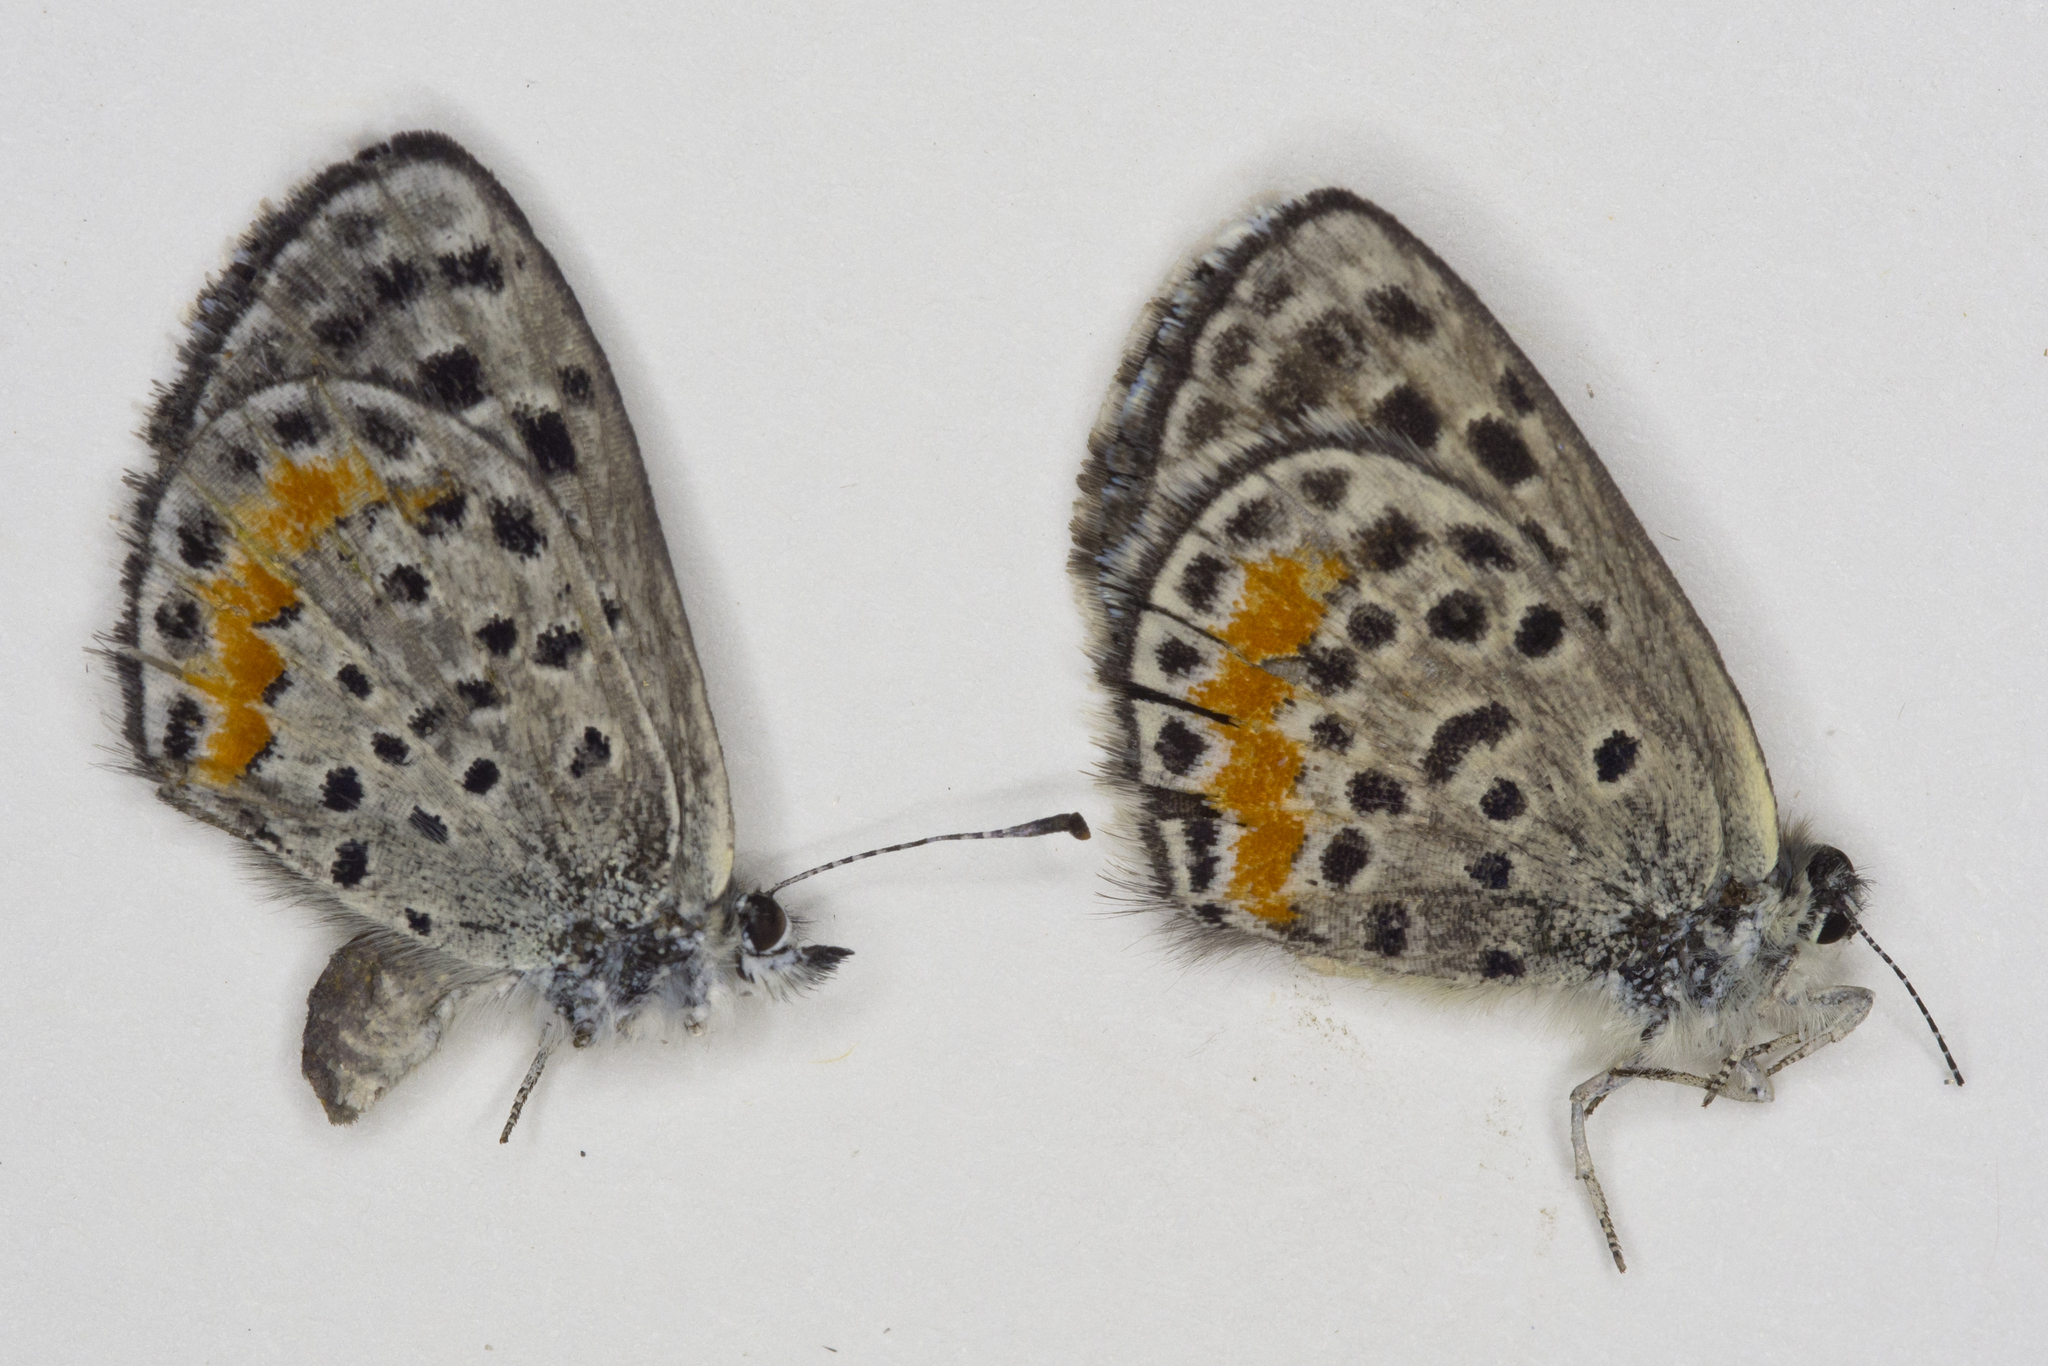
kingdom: Animalia
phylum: Arthropoda
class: Insecta
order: Lepidoptera
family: Lycaenidae
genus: Euphilotes
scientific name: Euphilotes ellisii
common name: Ellis's blue
